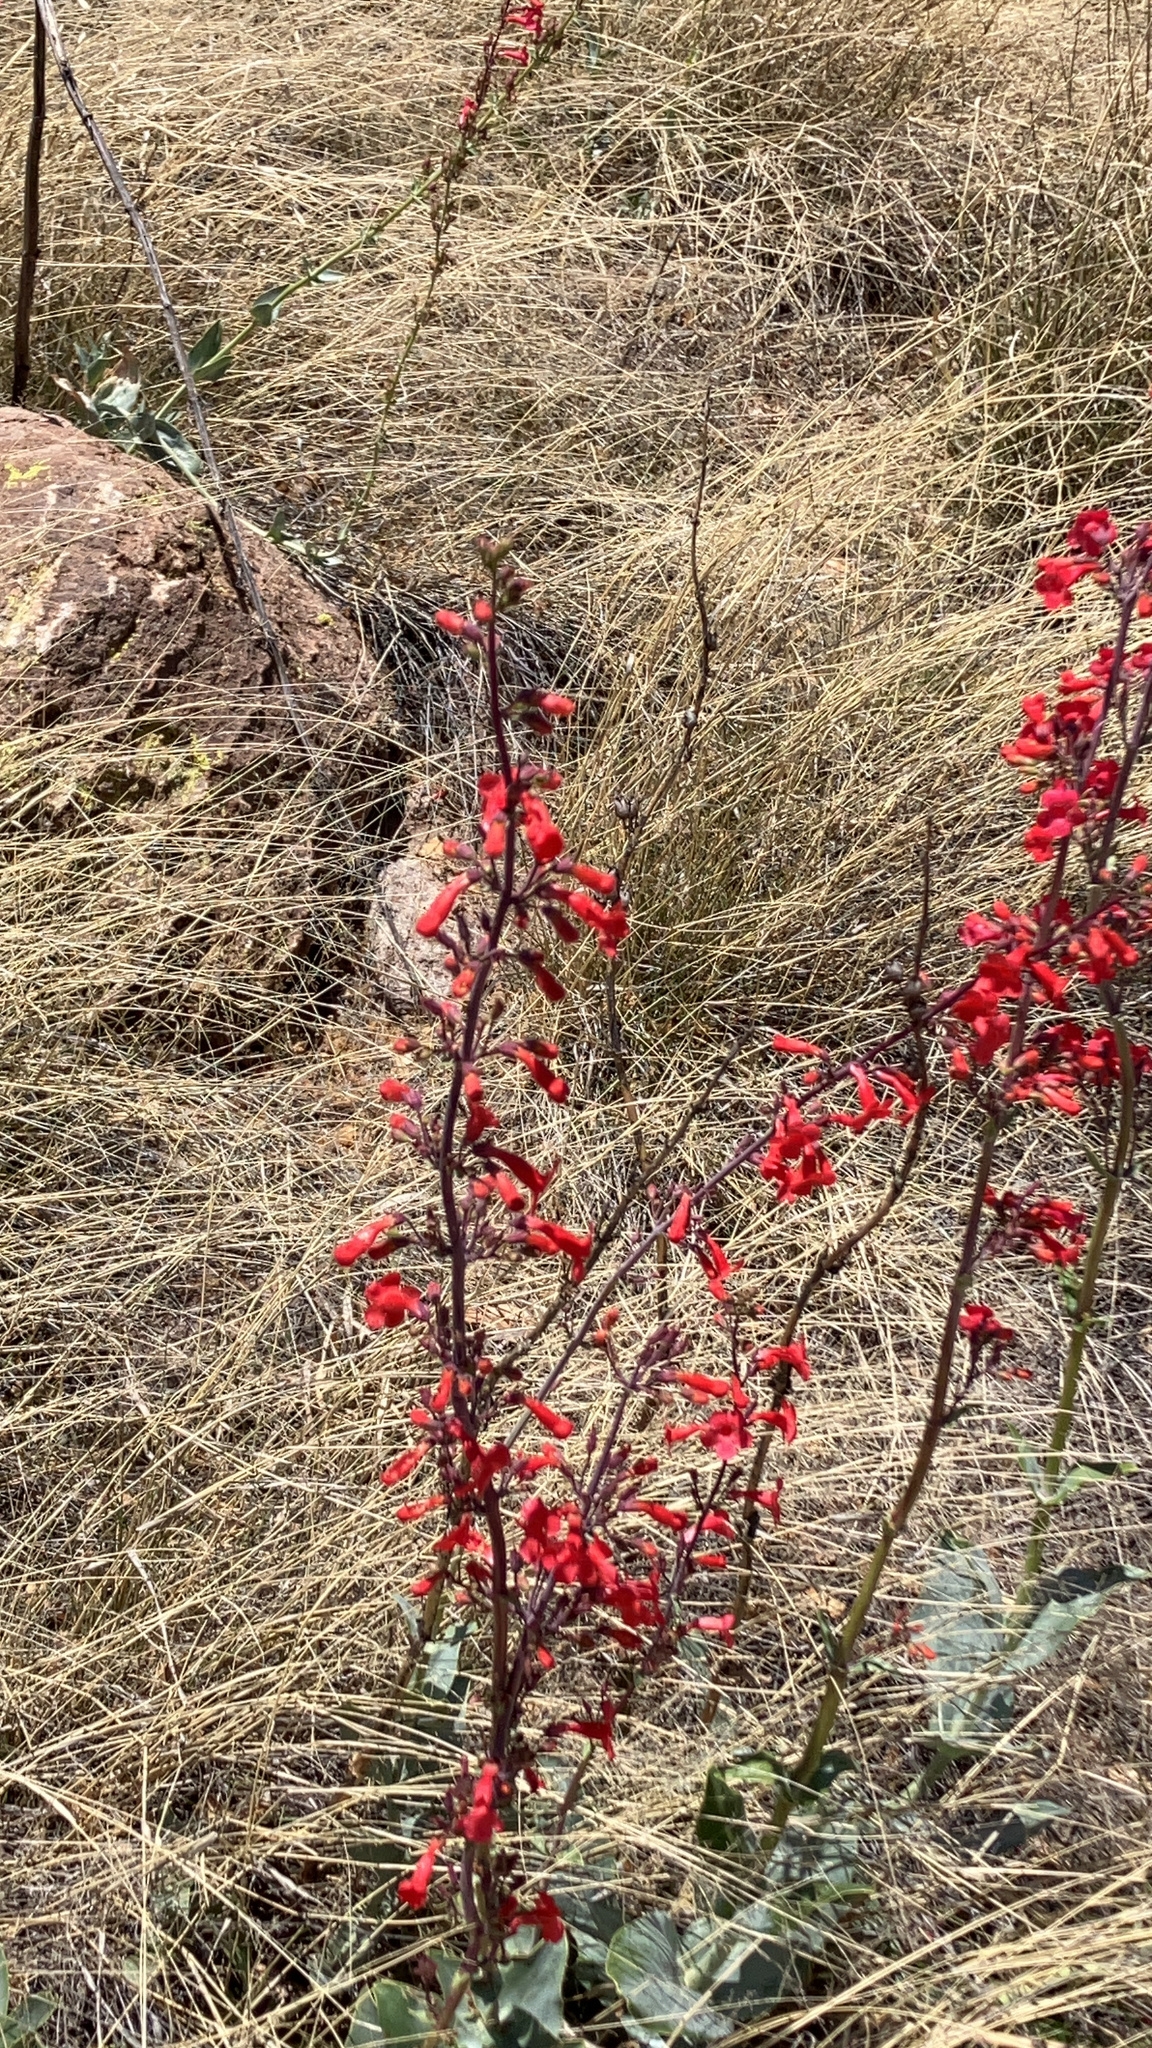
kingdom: Plantae
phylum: Tracheophyta
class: Magnoliopsida
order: Lamiales
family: Plantaginaceae
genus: Penstemon
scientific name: Penstemon superbus
